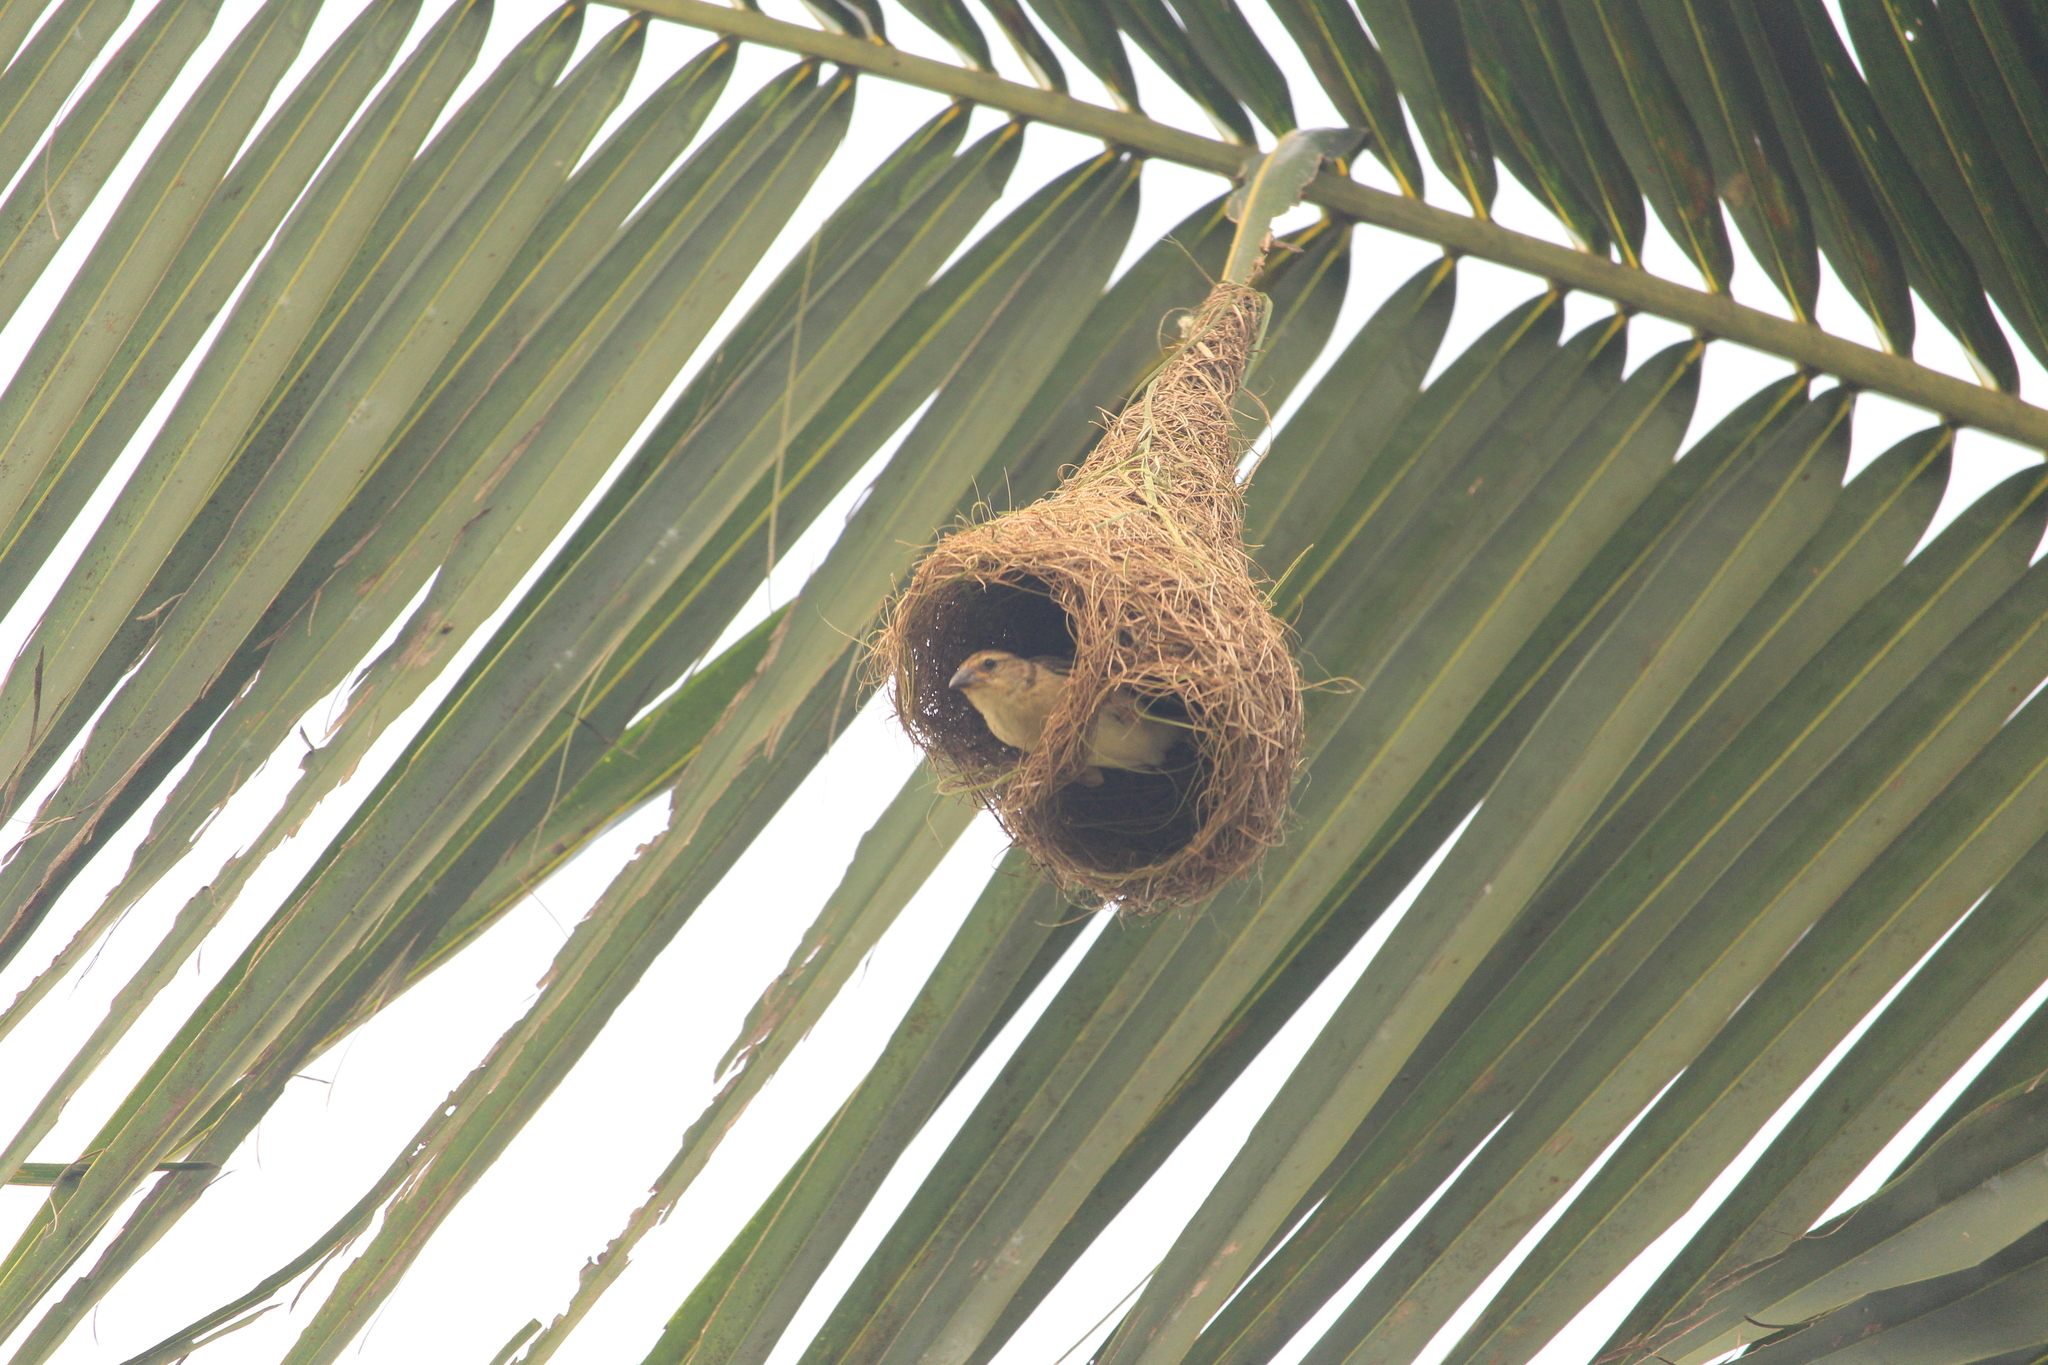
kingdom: Animalia
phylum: Chordata
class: Aves
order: Passeriformes
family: Ploceidae
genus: Ploceus
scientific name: Ploceus philippinus
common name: Baya weaver
